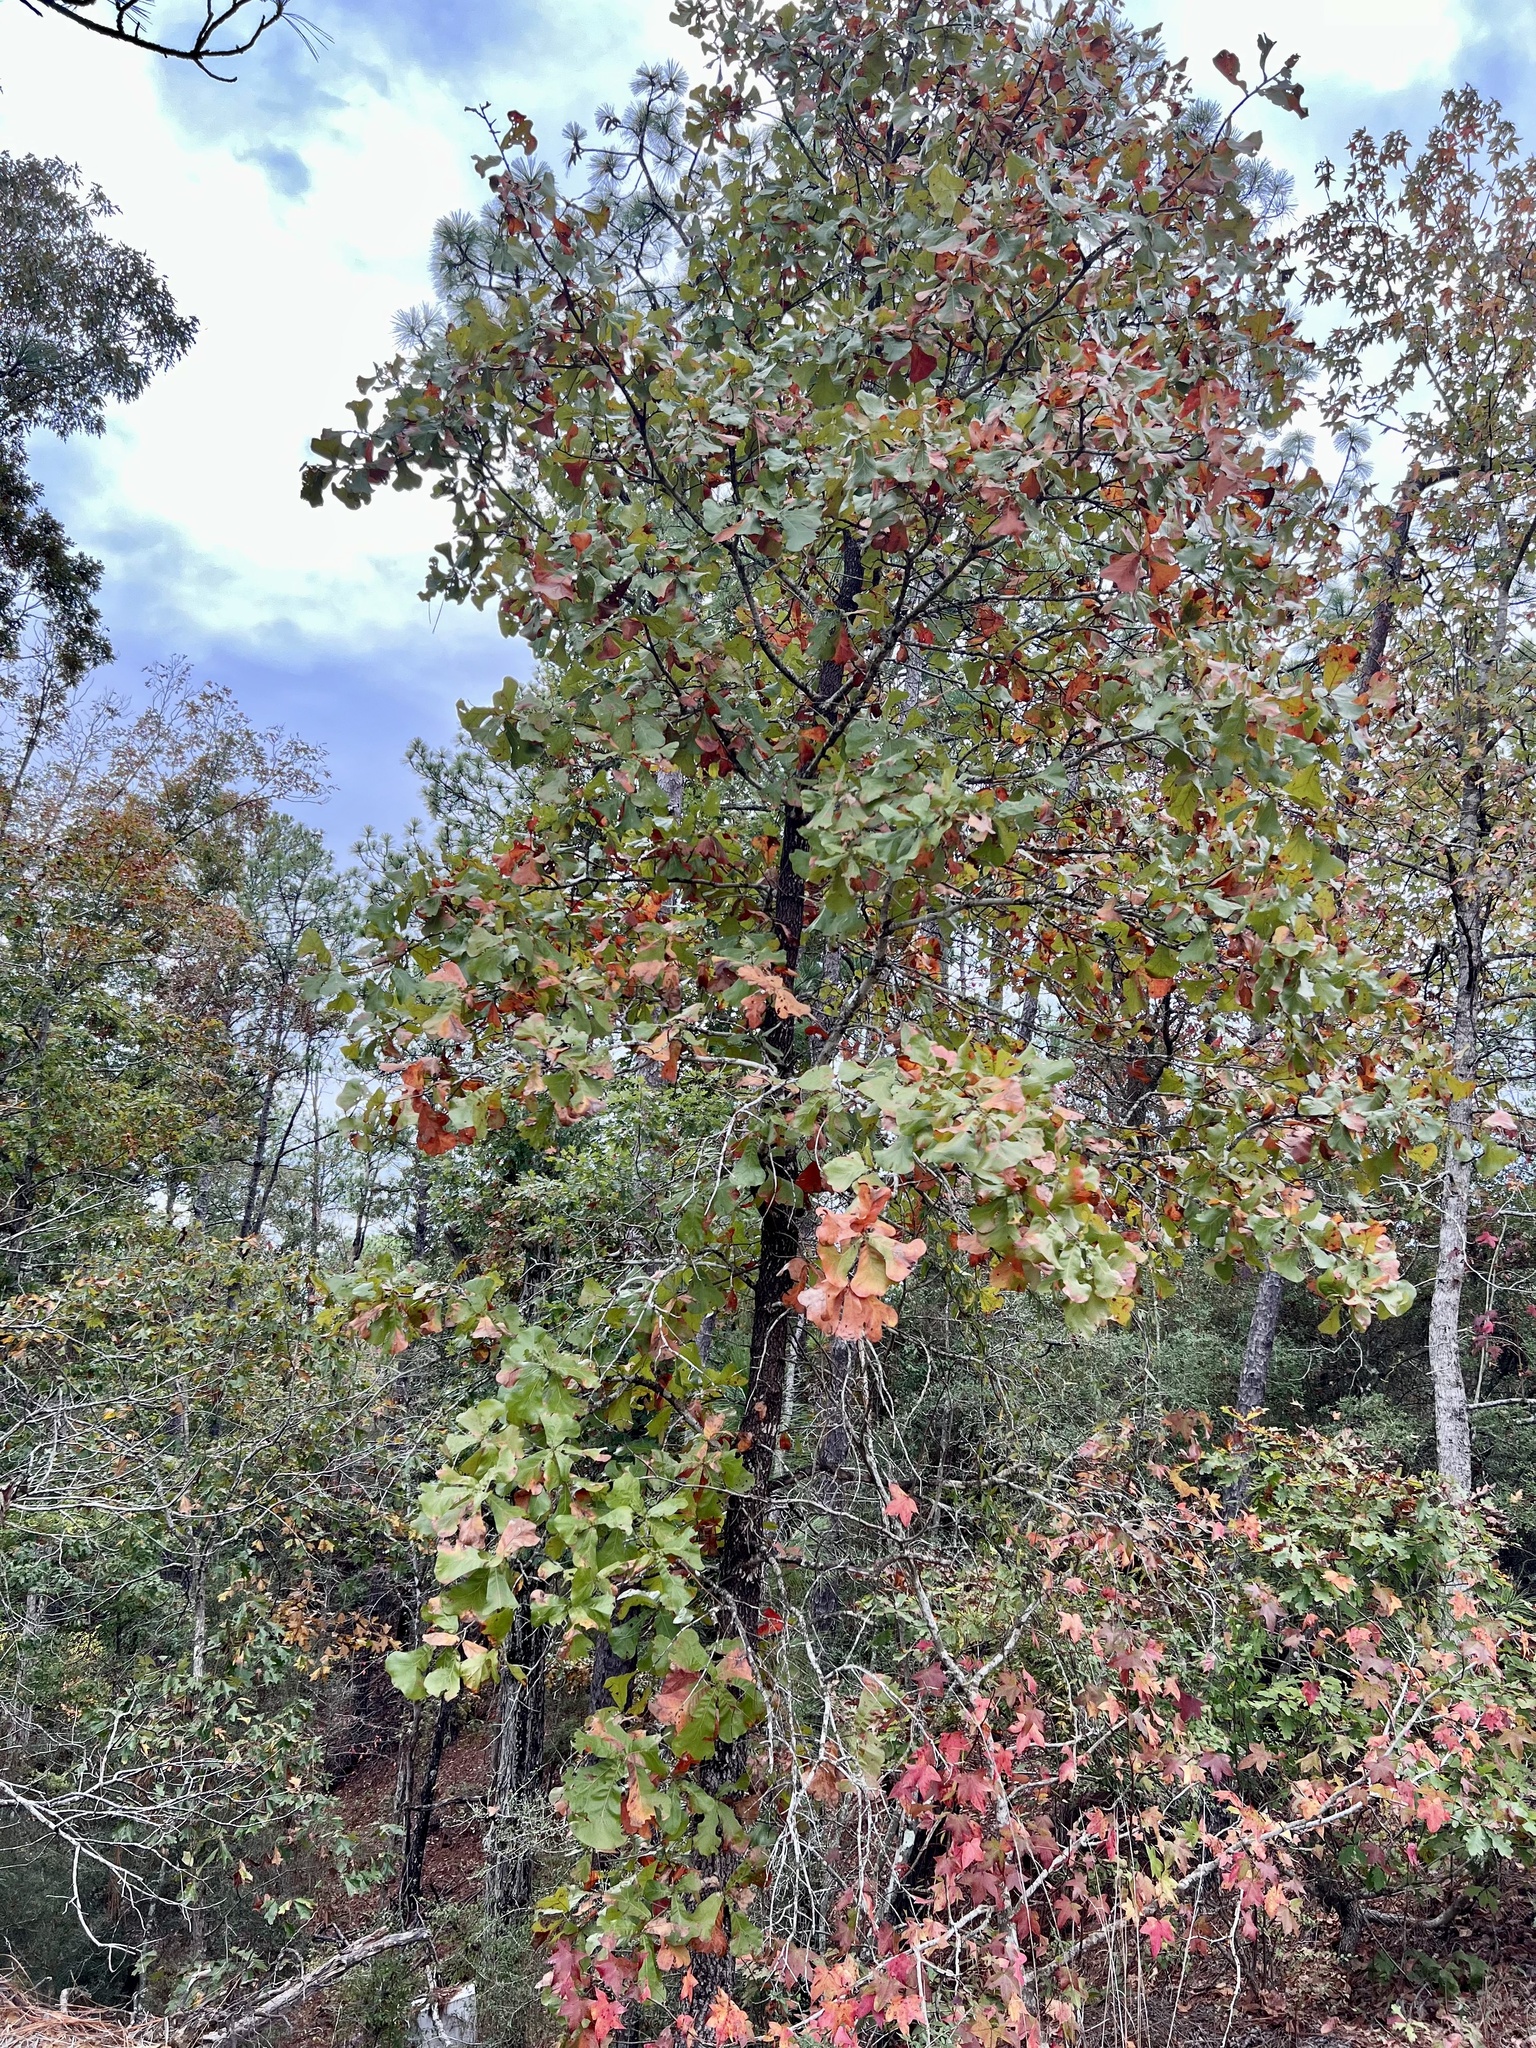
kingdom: Plantae
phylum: Tracheophyta
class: Magnoliopsida
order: Fagales
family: Fagaceae
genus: Quercus
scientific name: Quercus marilandica
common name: Blackjack oak
